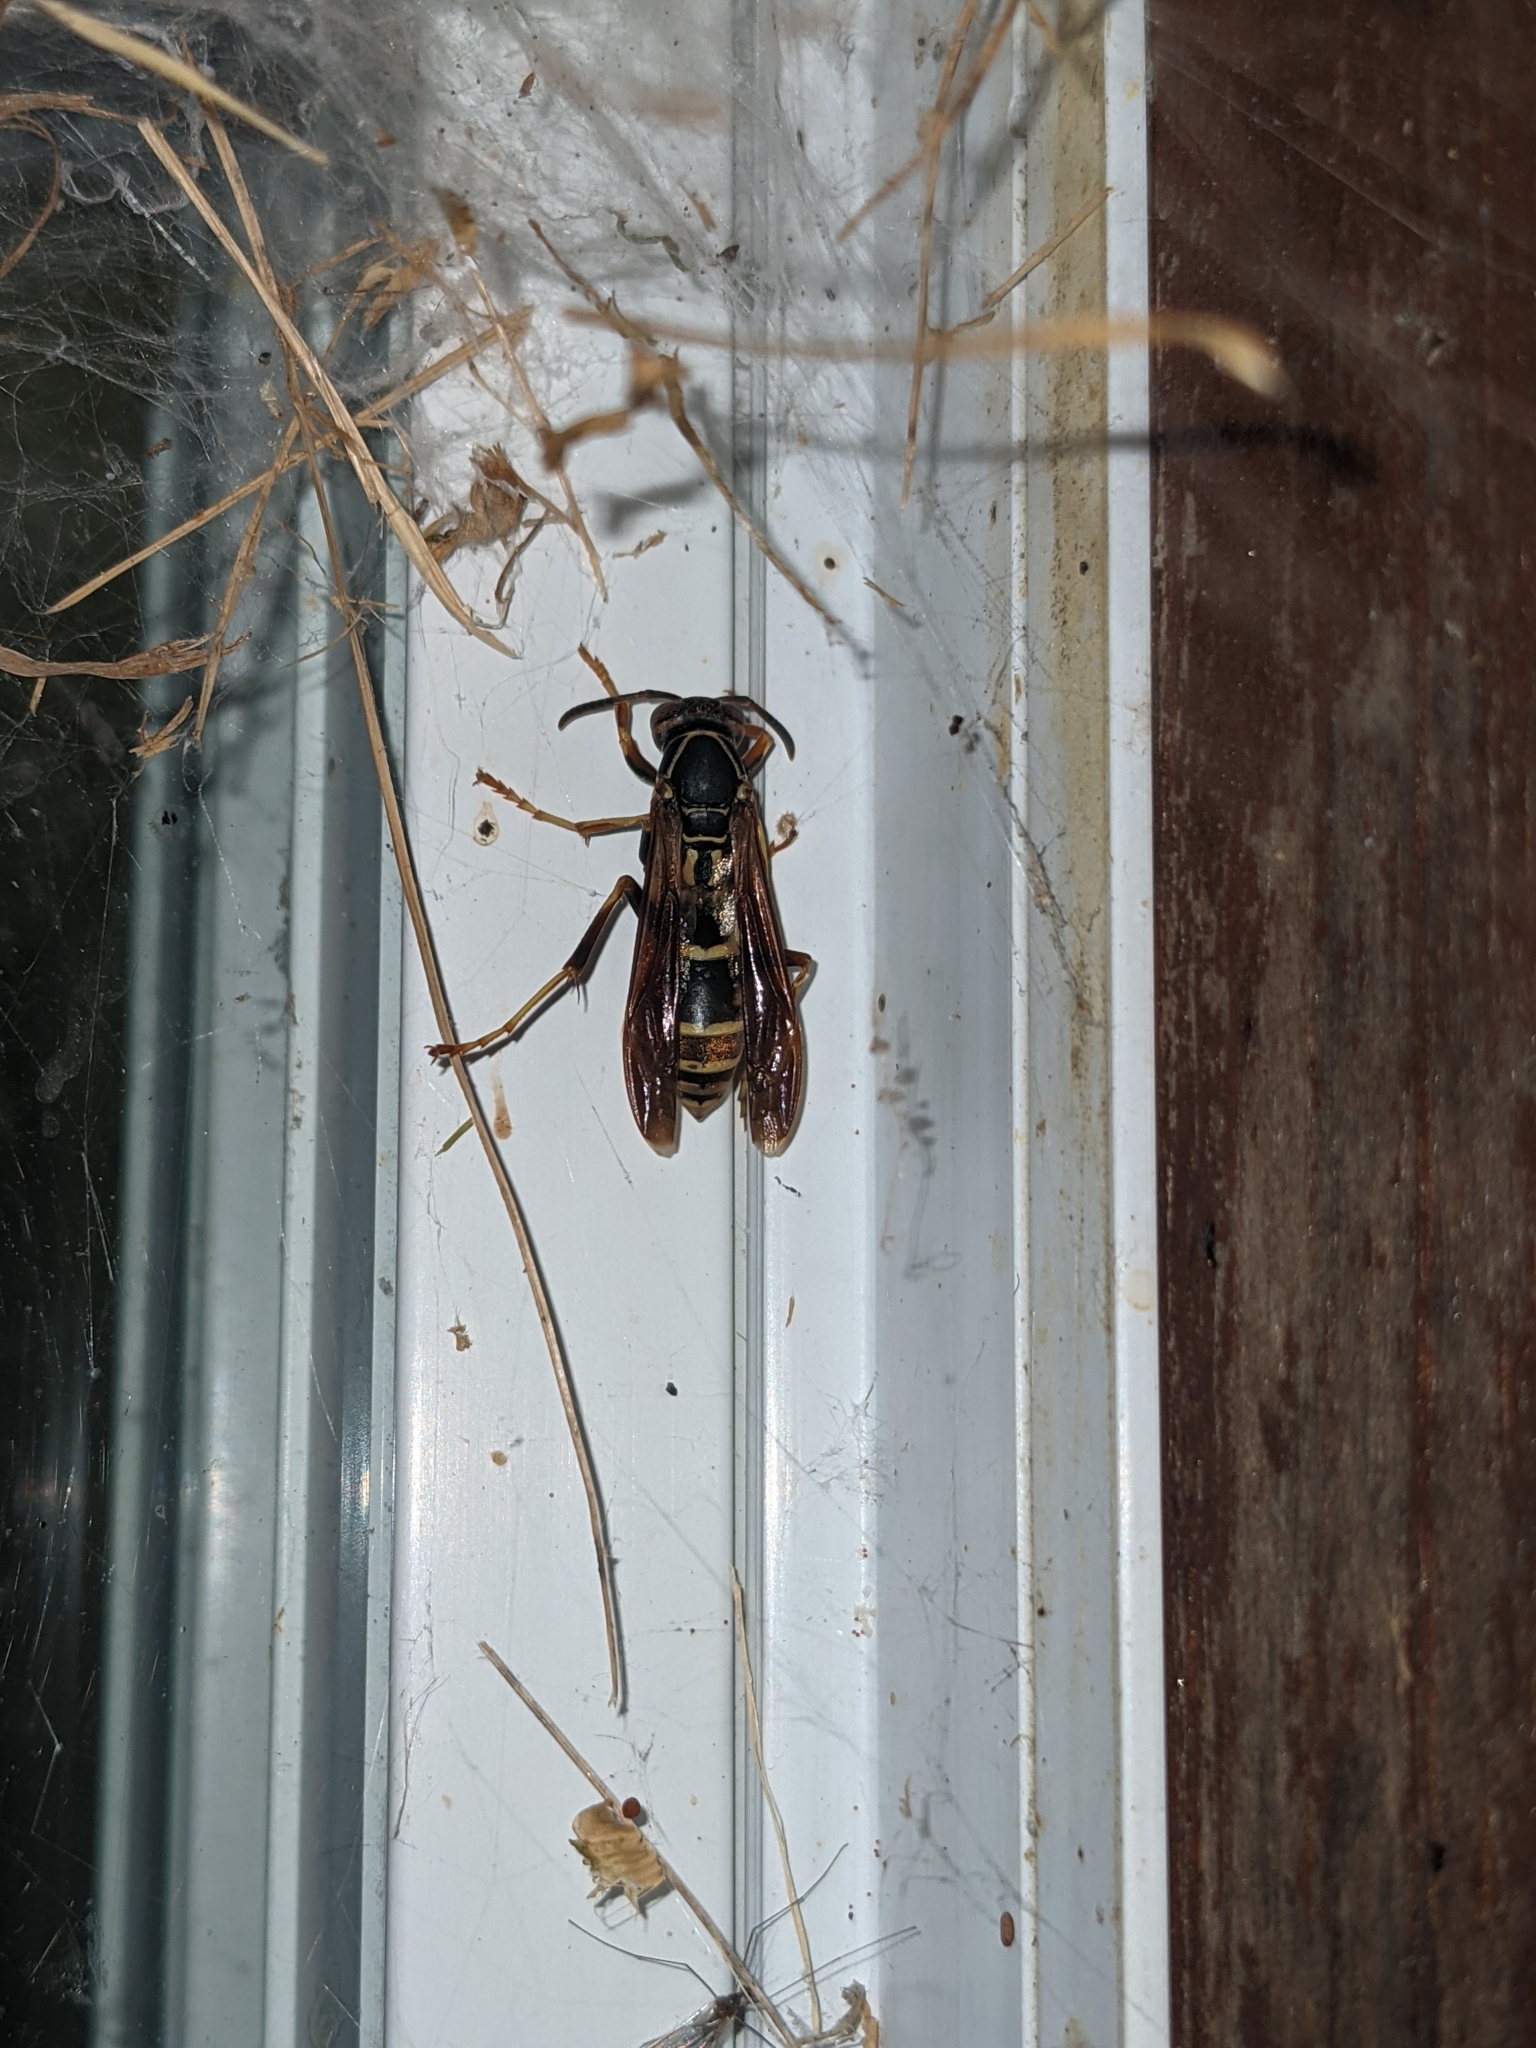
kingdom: Animalia
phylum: Arthropoda
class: Insecta
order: Hymenoptera
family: Eumenidae
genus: Polistes
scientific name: Polistes fuscatus
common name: Dark paper wasp
